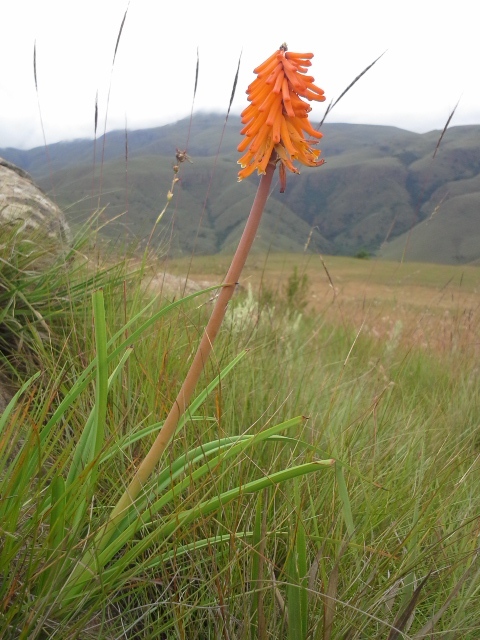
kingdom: Plantae
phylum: Tracheophyta
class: Liliopsida
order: Asparagales
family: Asphodelaceae
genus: Kniphofia
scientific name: Kniphofia galpinii
